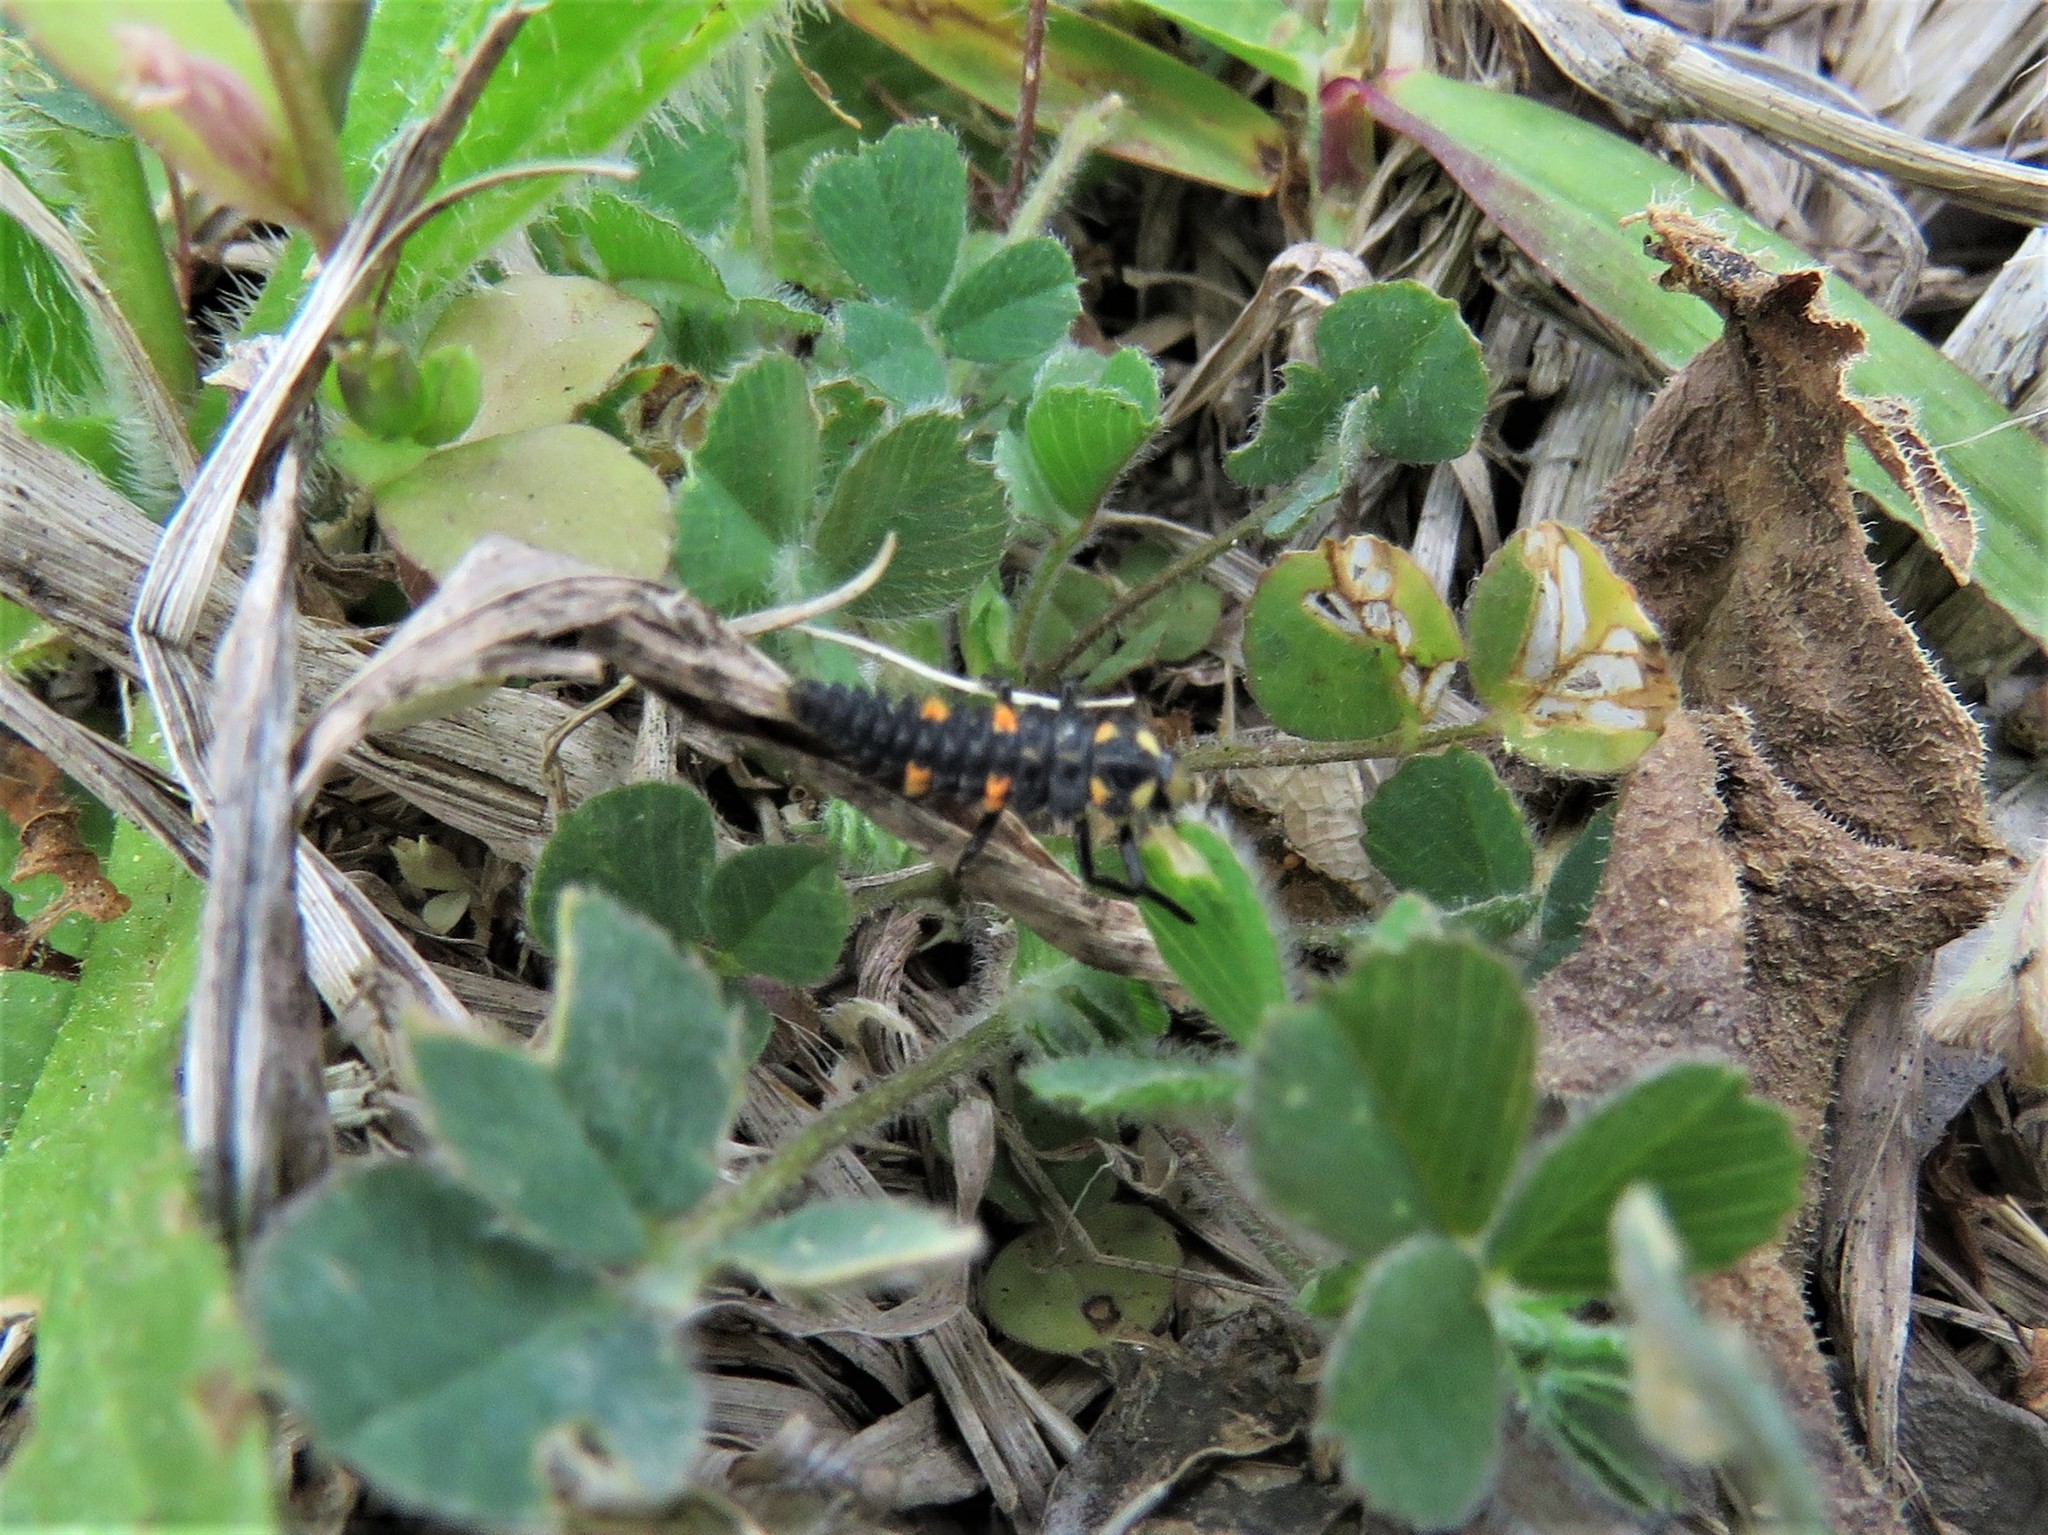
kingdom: Animalia
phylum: Arthropoda
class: Insecta
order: Coleoptera
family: Coccinellidae
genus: Coccinella
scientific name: Coccinella septempunctata
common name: Sevenspotted lady beetle
